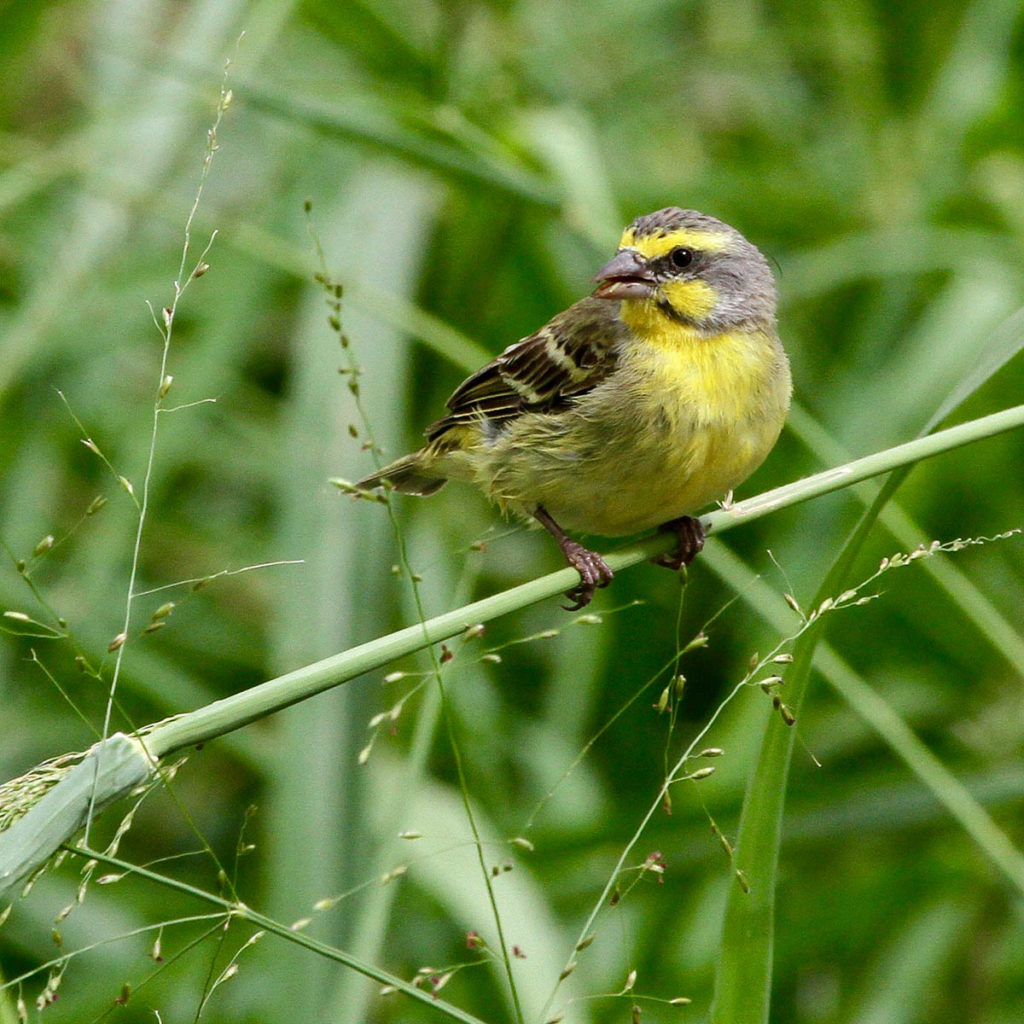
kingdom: Animalia
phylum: Chordata
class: Aves
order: Passeriformes
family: Fringillidae
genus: Crithagra
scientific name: Crithagra mozambica
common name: Yellow-fronted canary
